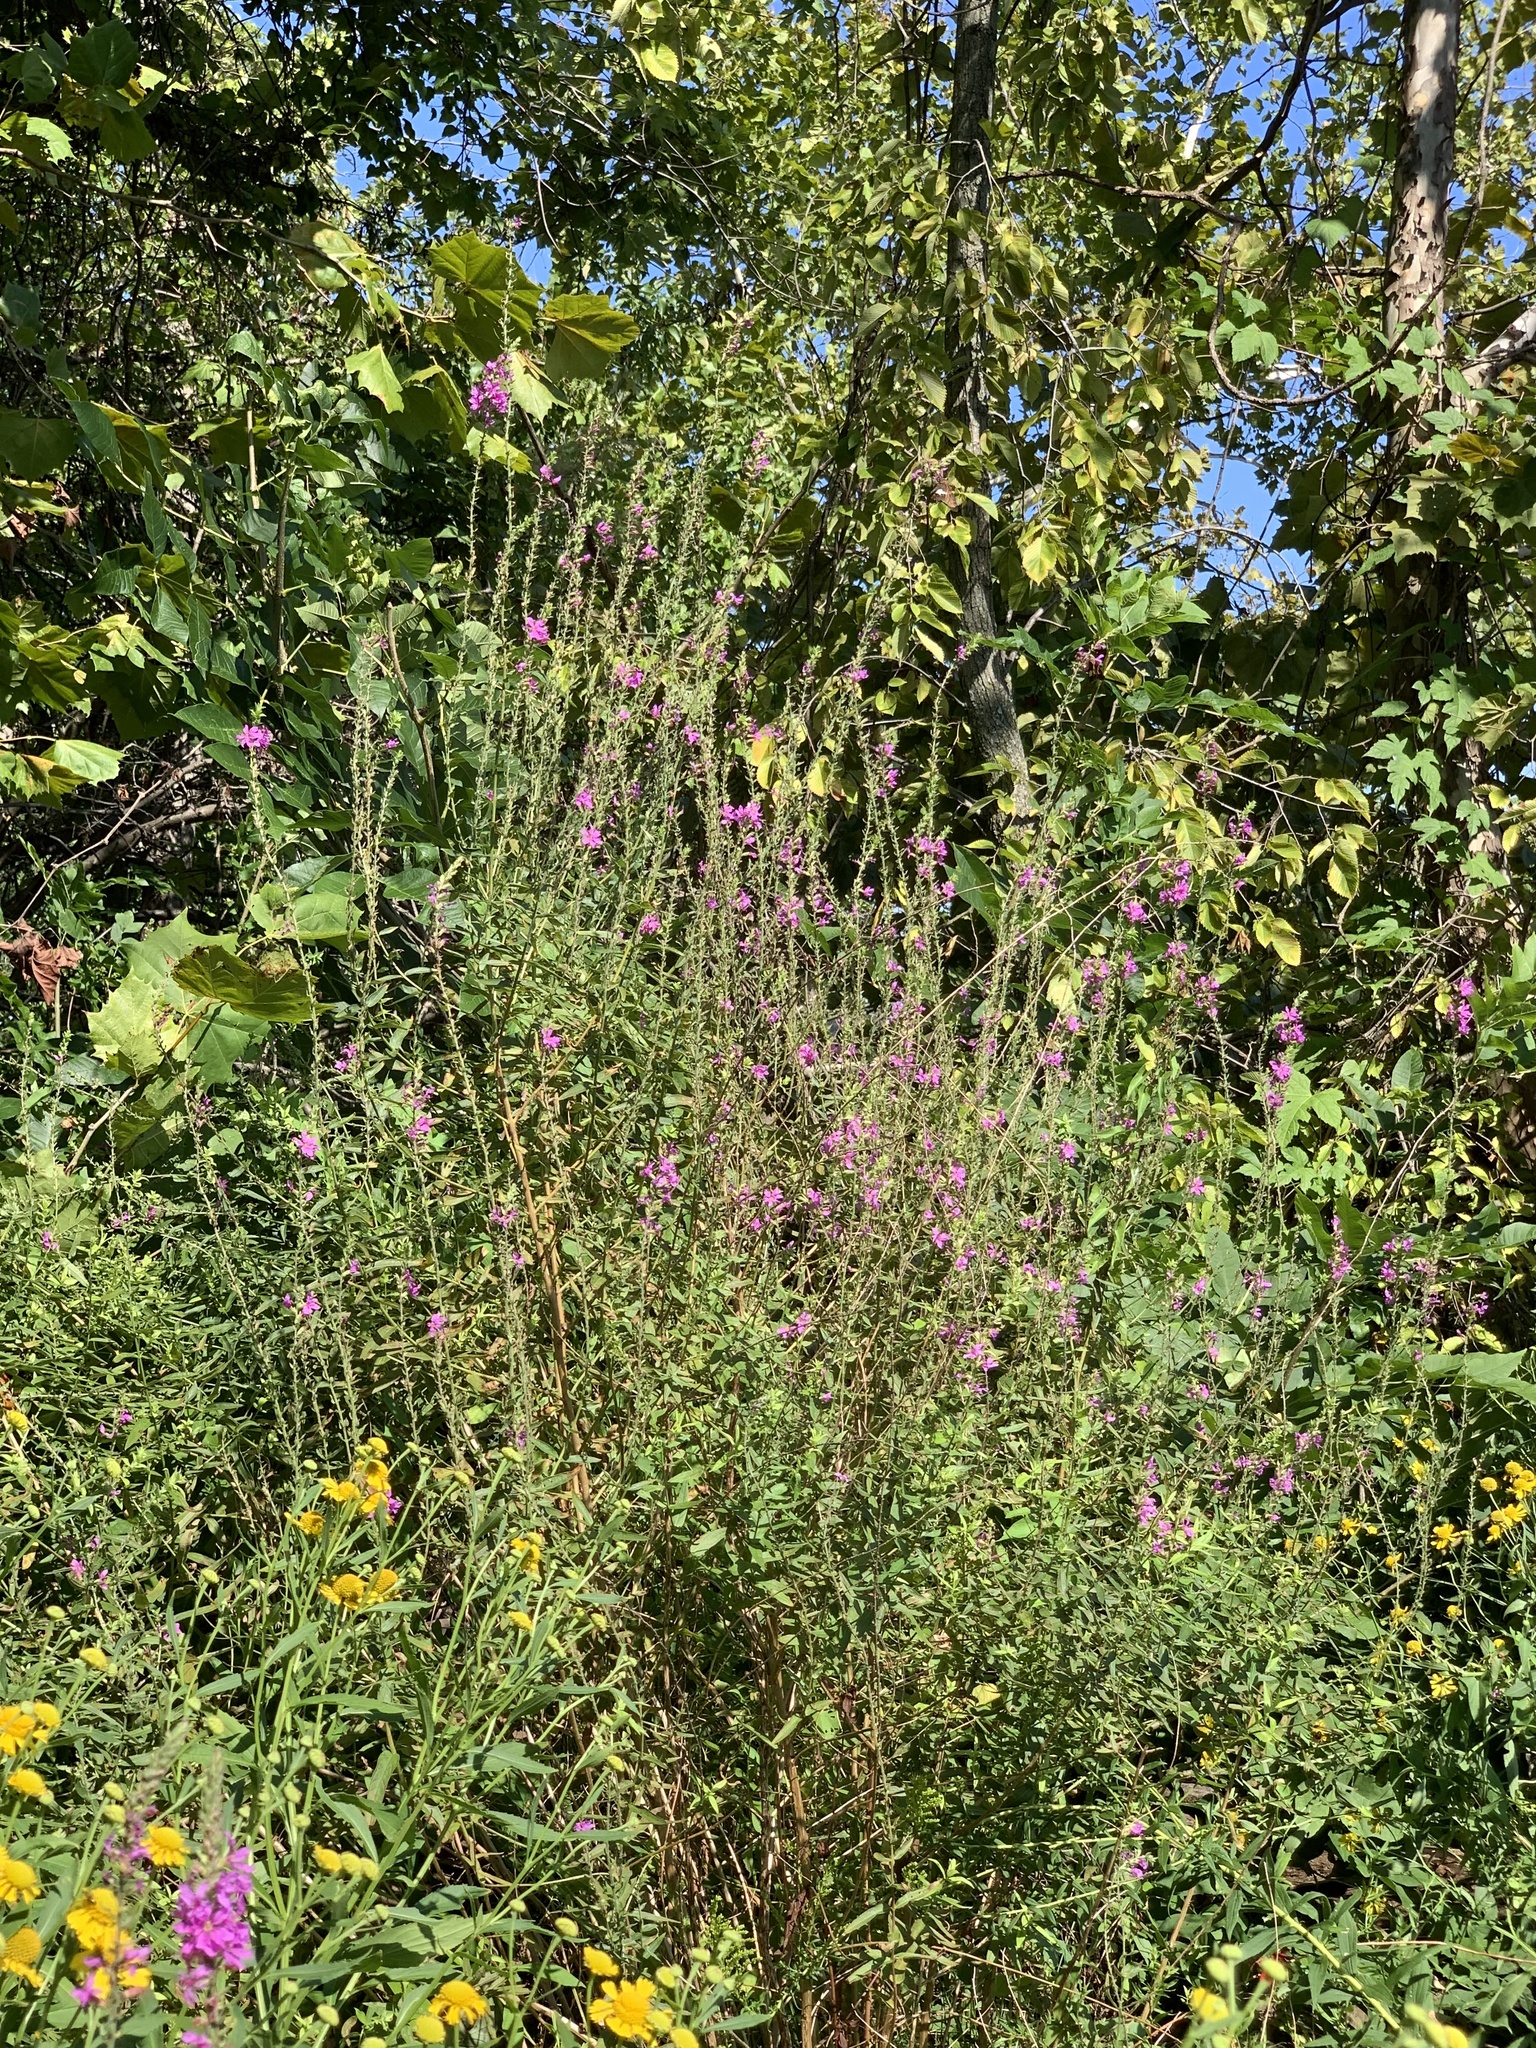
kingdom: Plantae
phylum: Tracheophyta
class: Magnoliopsida
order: Myrtales
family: Lythraceae
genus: Lythrum
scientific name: Lythrum salicaria
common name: Purple loosestrife
